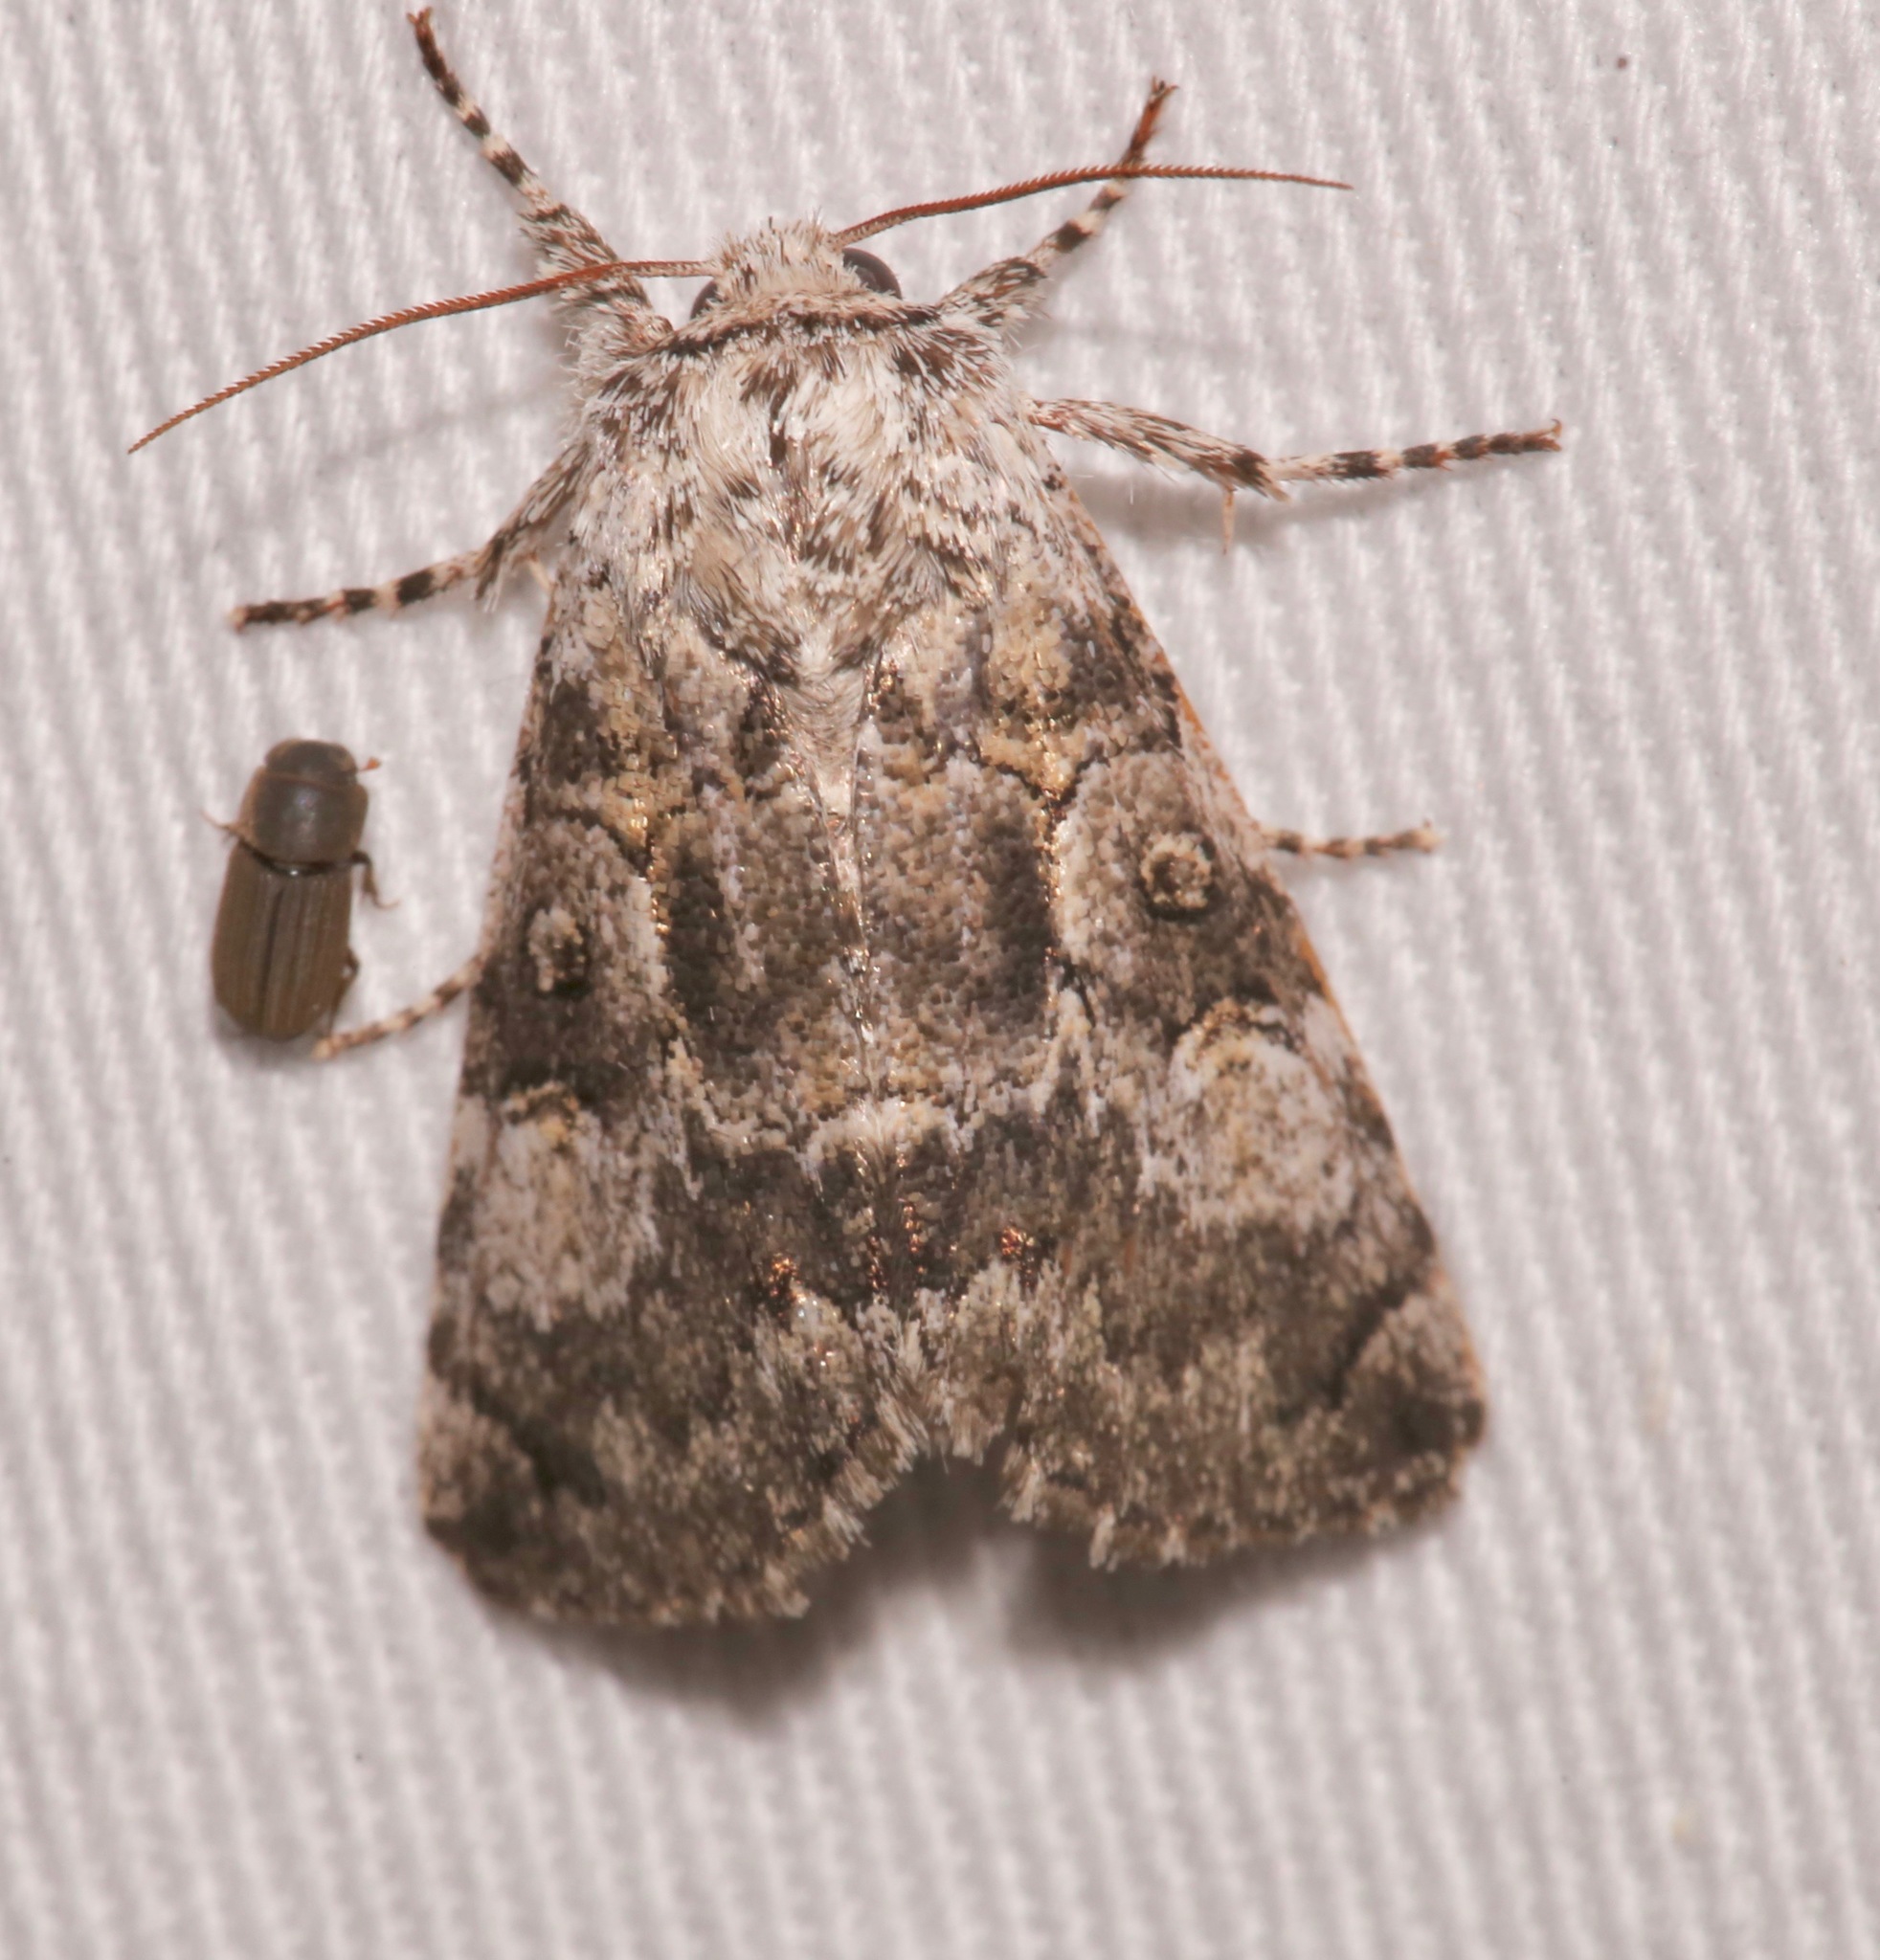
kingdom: Animalia
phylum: Arthropoda
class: Insecta
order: Lepidoptera
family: Noctuidae
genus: Charadra
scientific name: Charadra deridens
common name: Marbled tuffet
